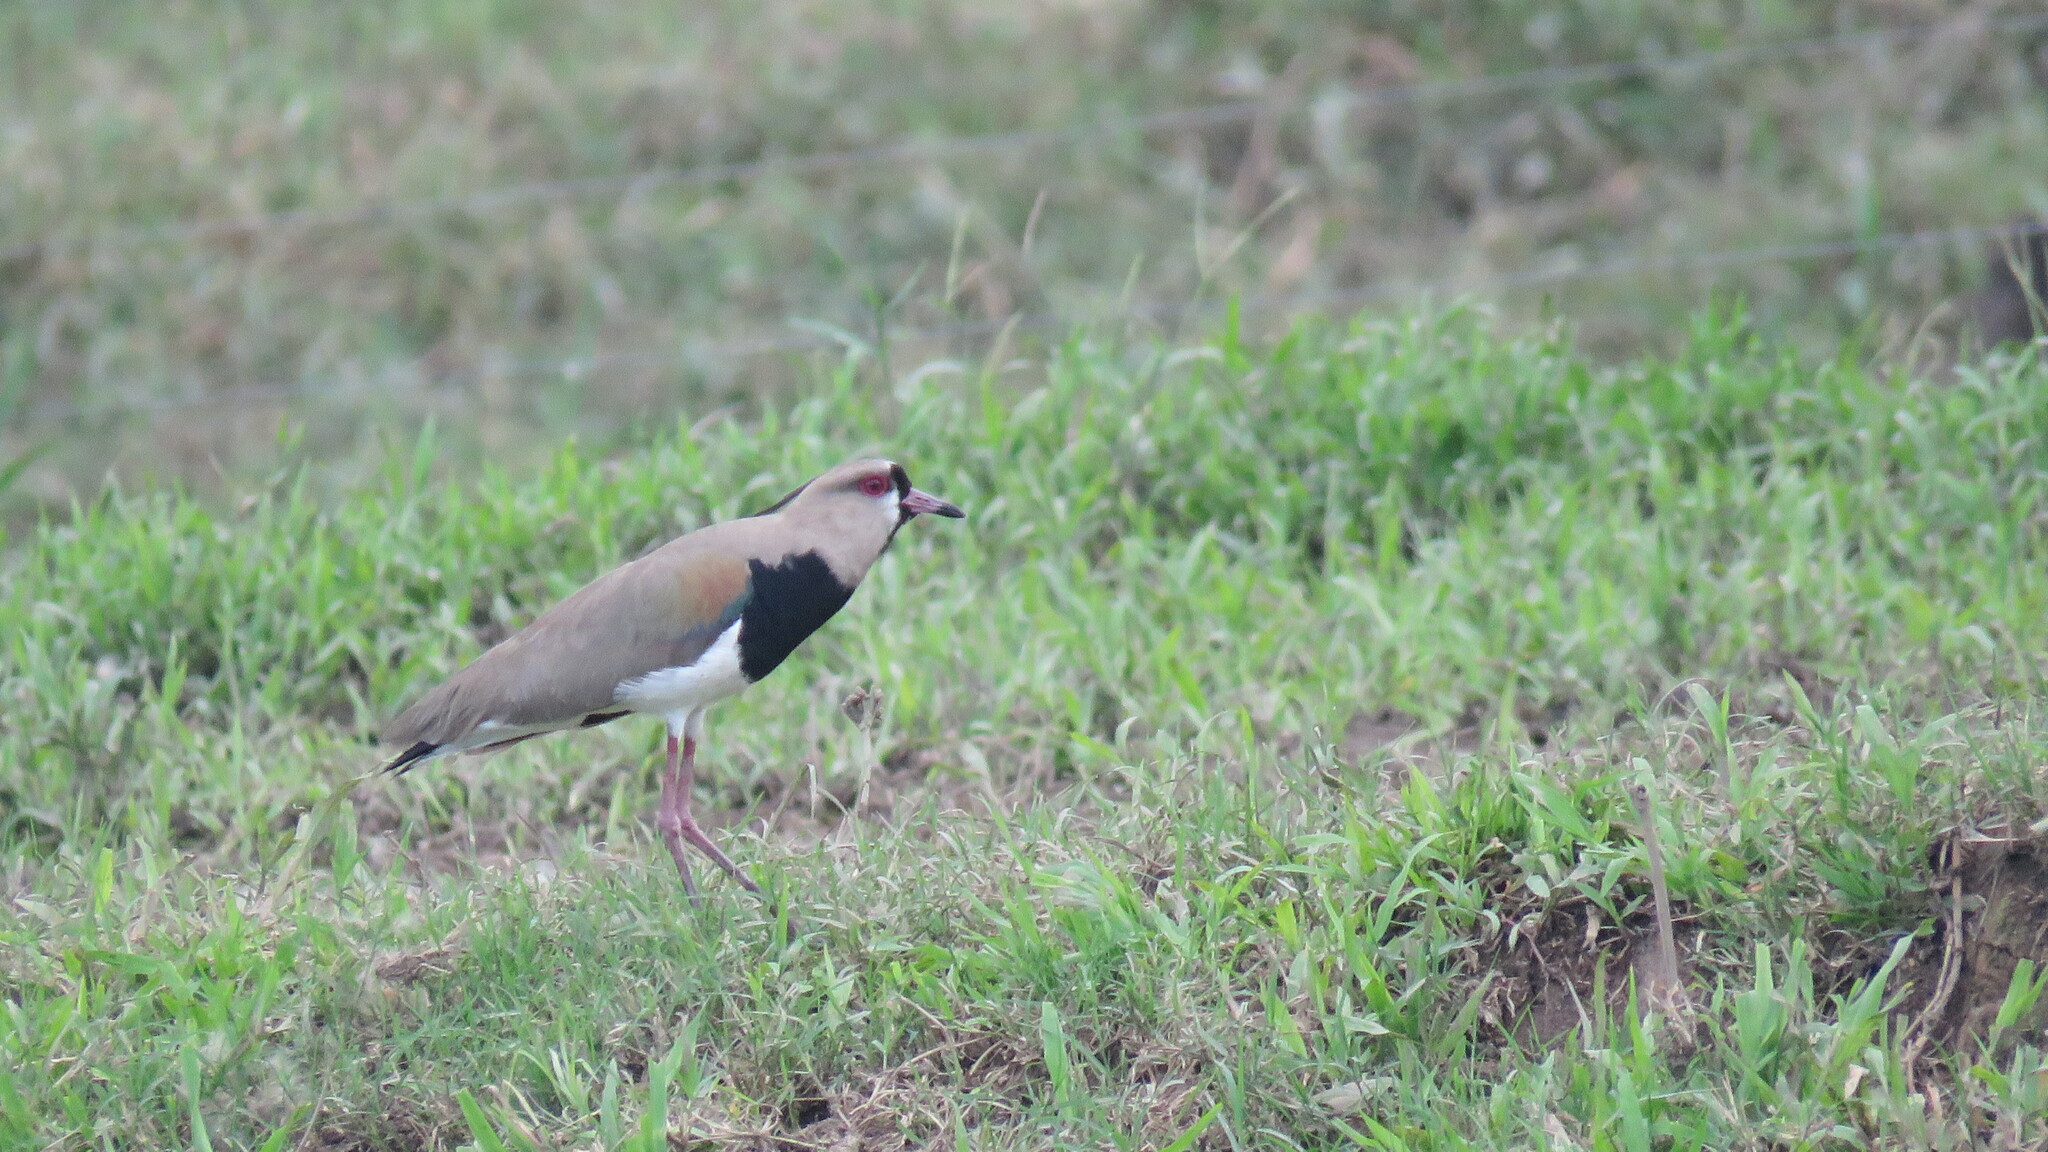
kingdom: Animalia
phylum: Chordata
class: Aves
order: Charadriiformes
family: Charadriidae
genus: Vanellus
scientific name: Vanellus chilensis
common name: Southern lapwing
